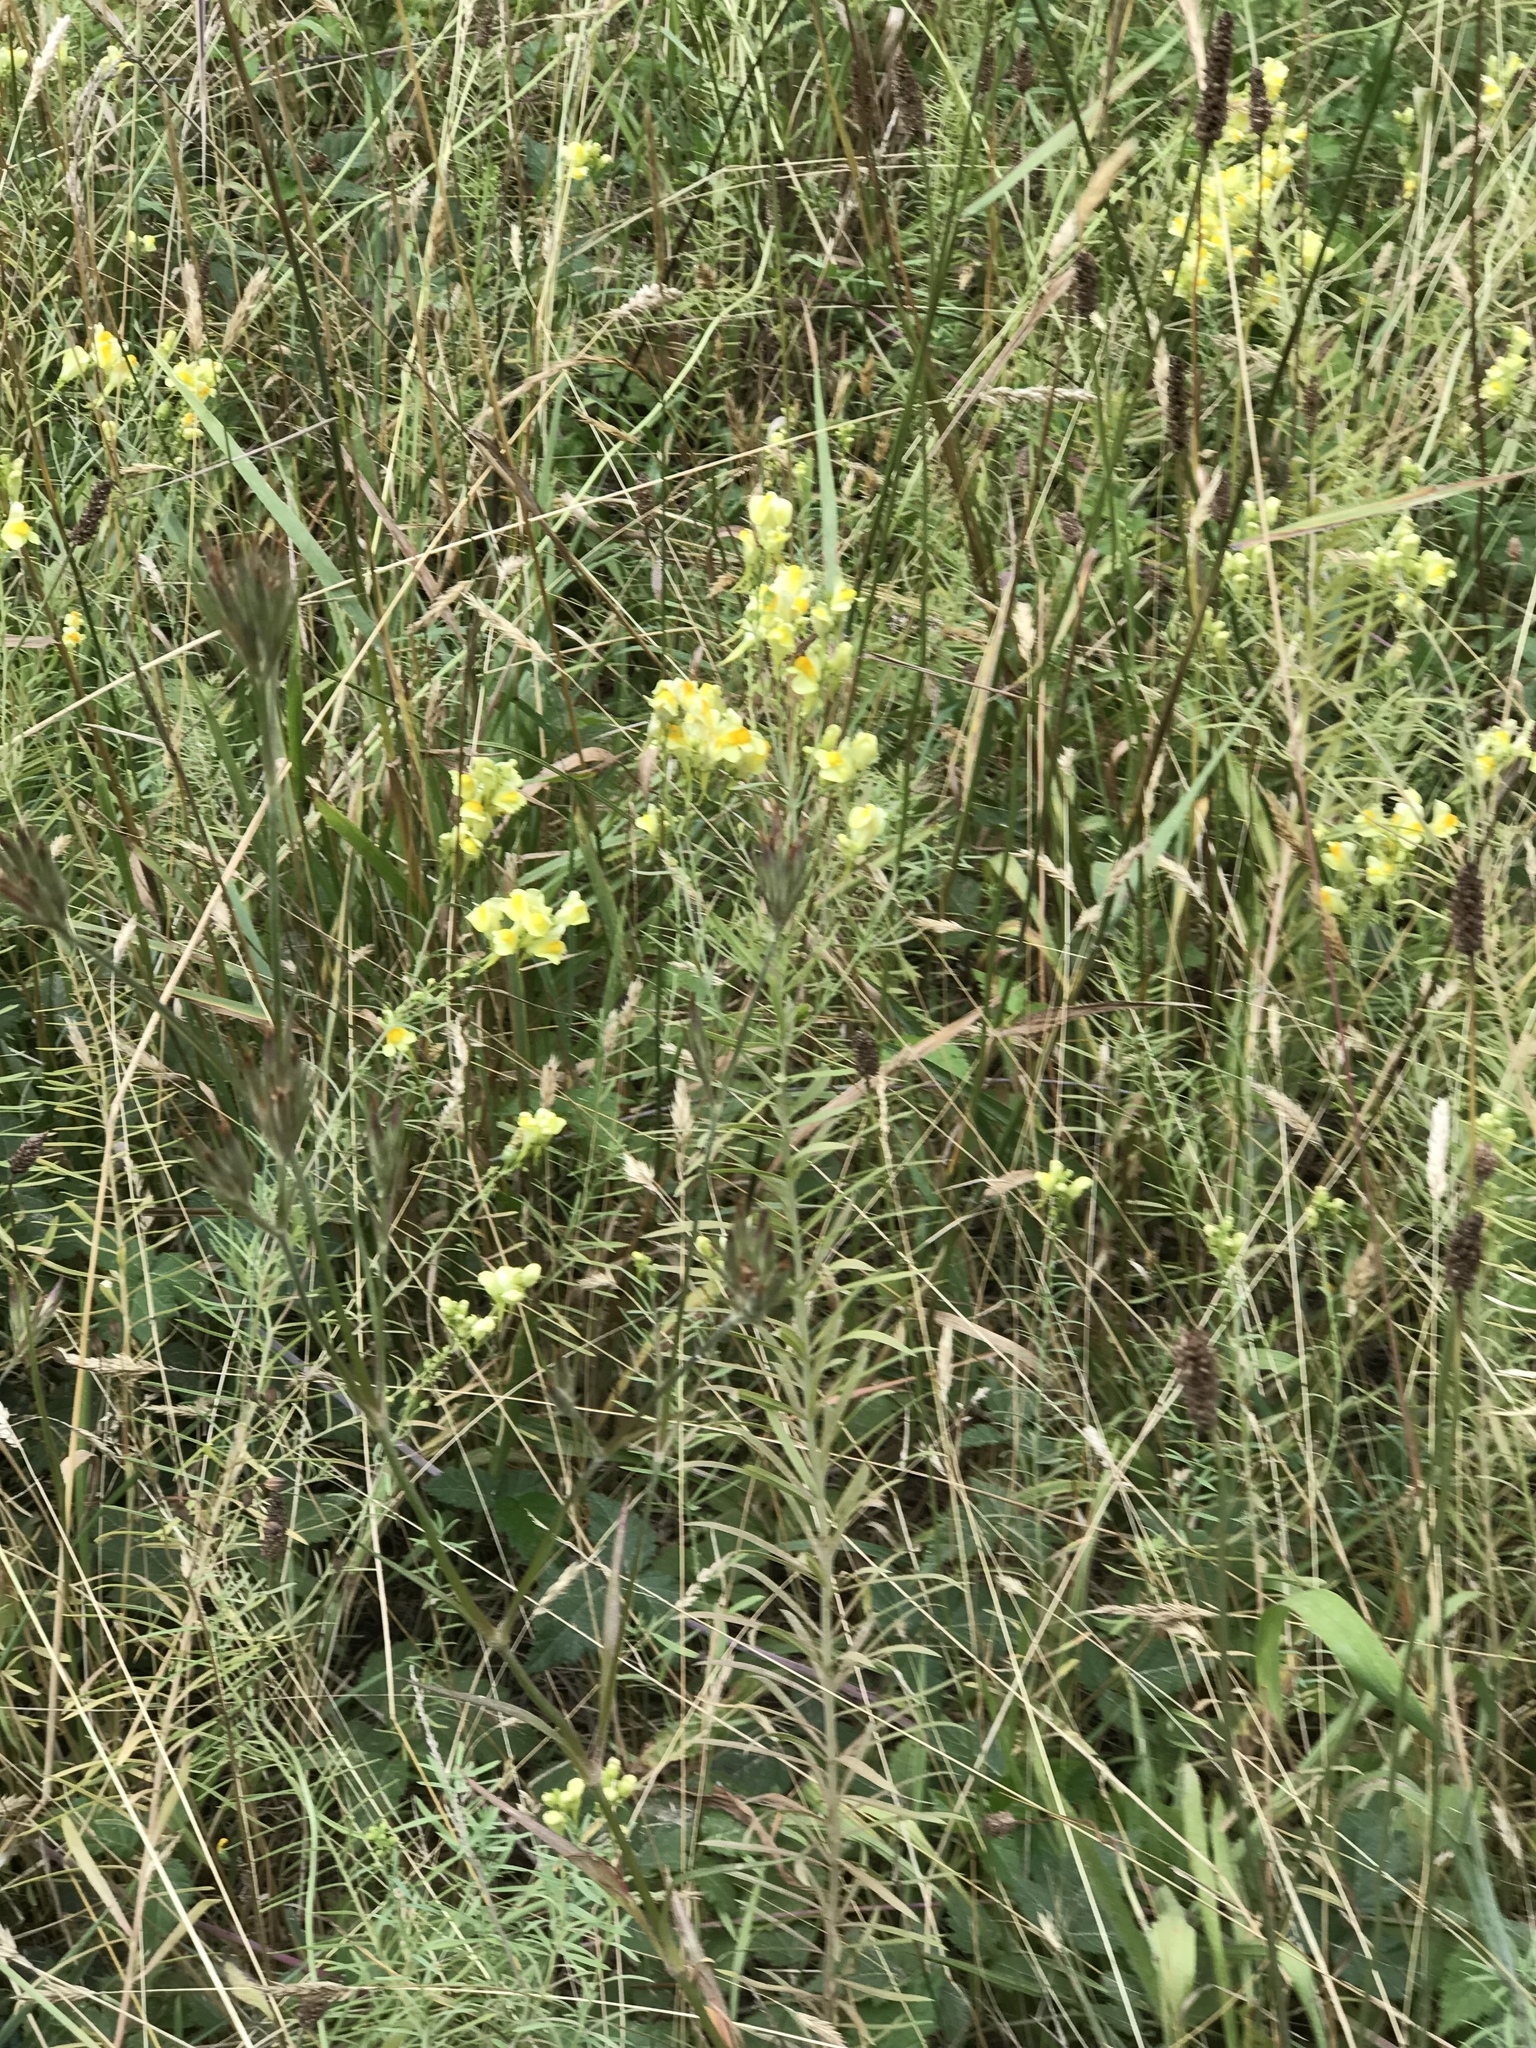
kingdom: Plantae
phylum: Tracheophyta
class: Magnoliopsida
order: Lamiales
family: Plantaginaceae
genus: Linaria
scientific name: Linaria vulgaris
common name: Butter and eggs
